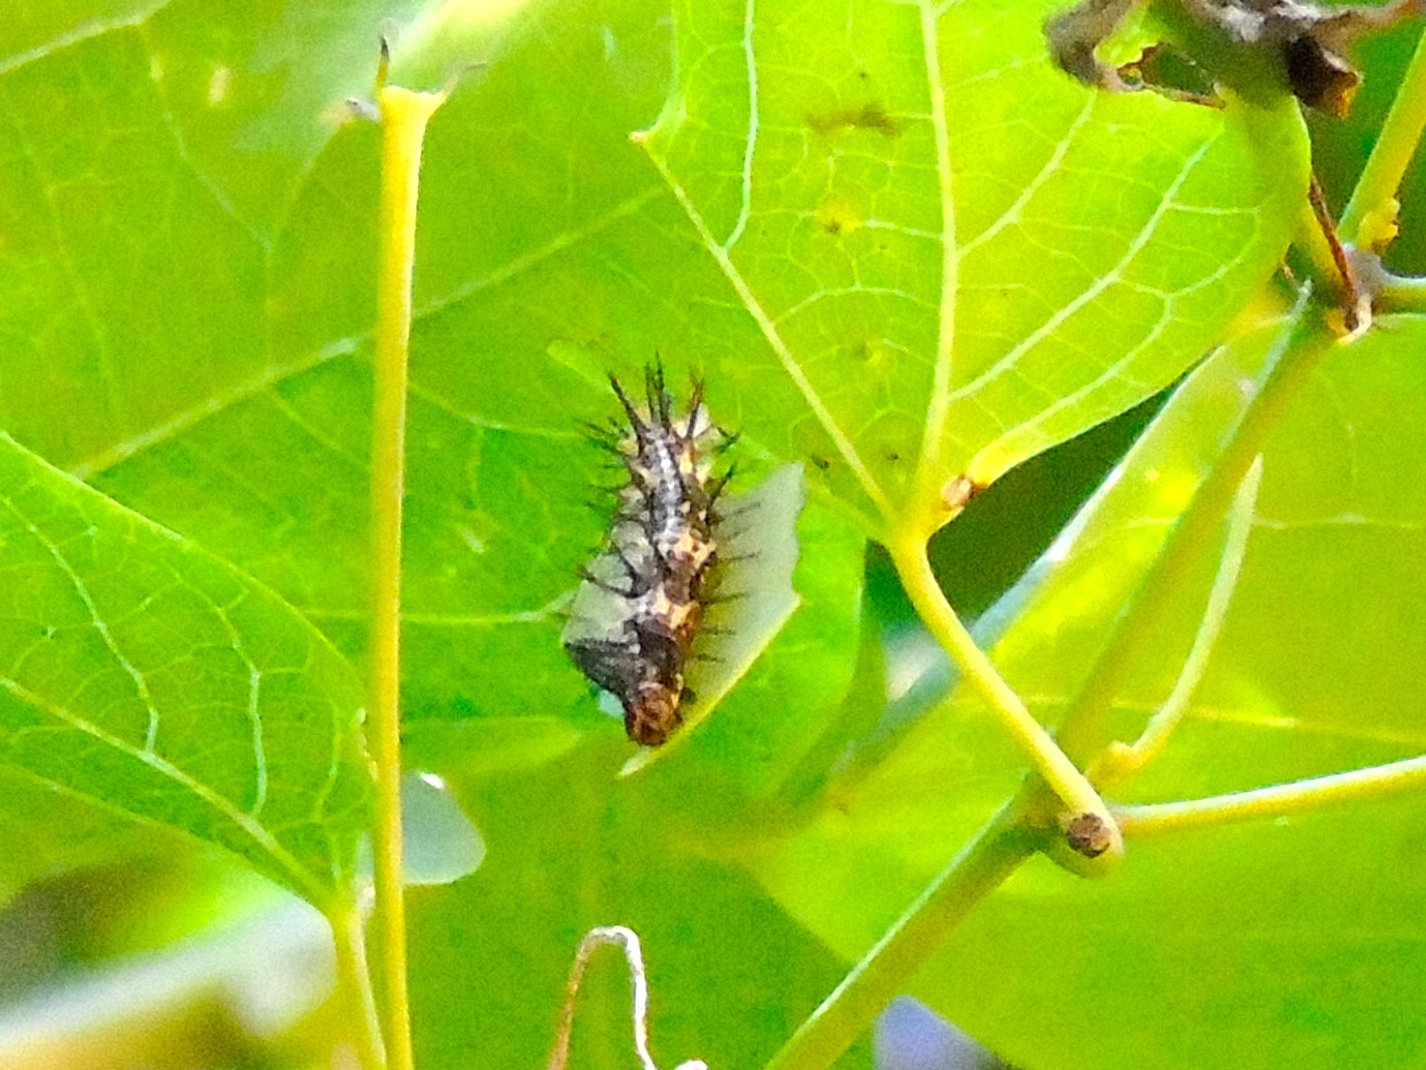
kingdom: Animalia
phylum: Arthropoda
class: Insecta
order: Lepidoptera
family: Nymphalidae
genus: Dryas
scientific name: Dryas iulia
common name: Flambeau
